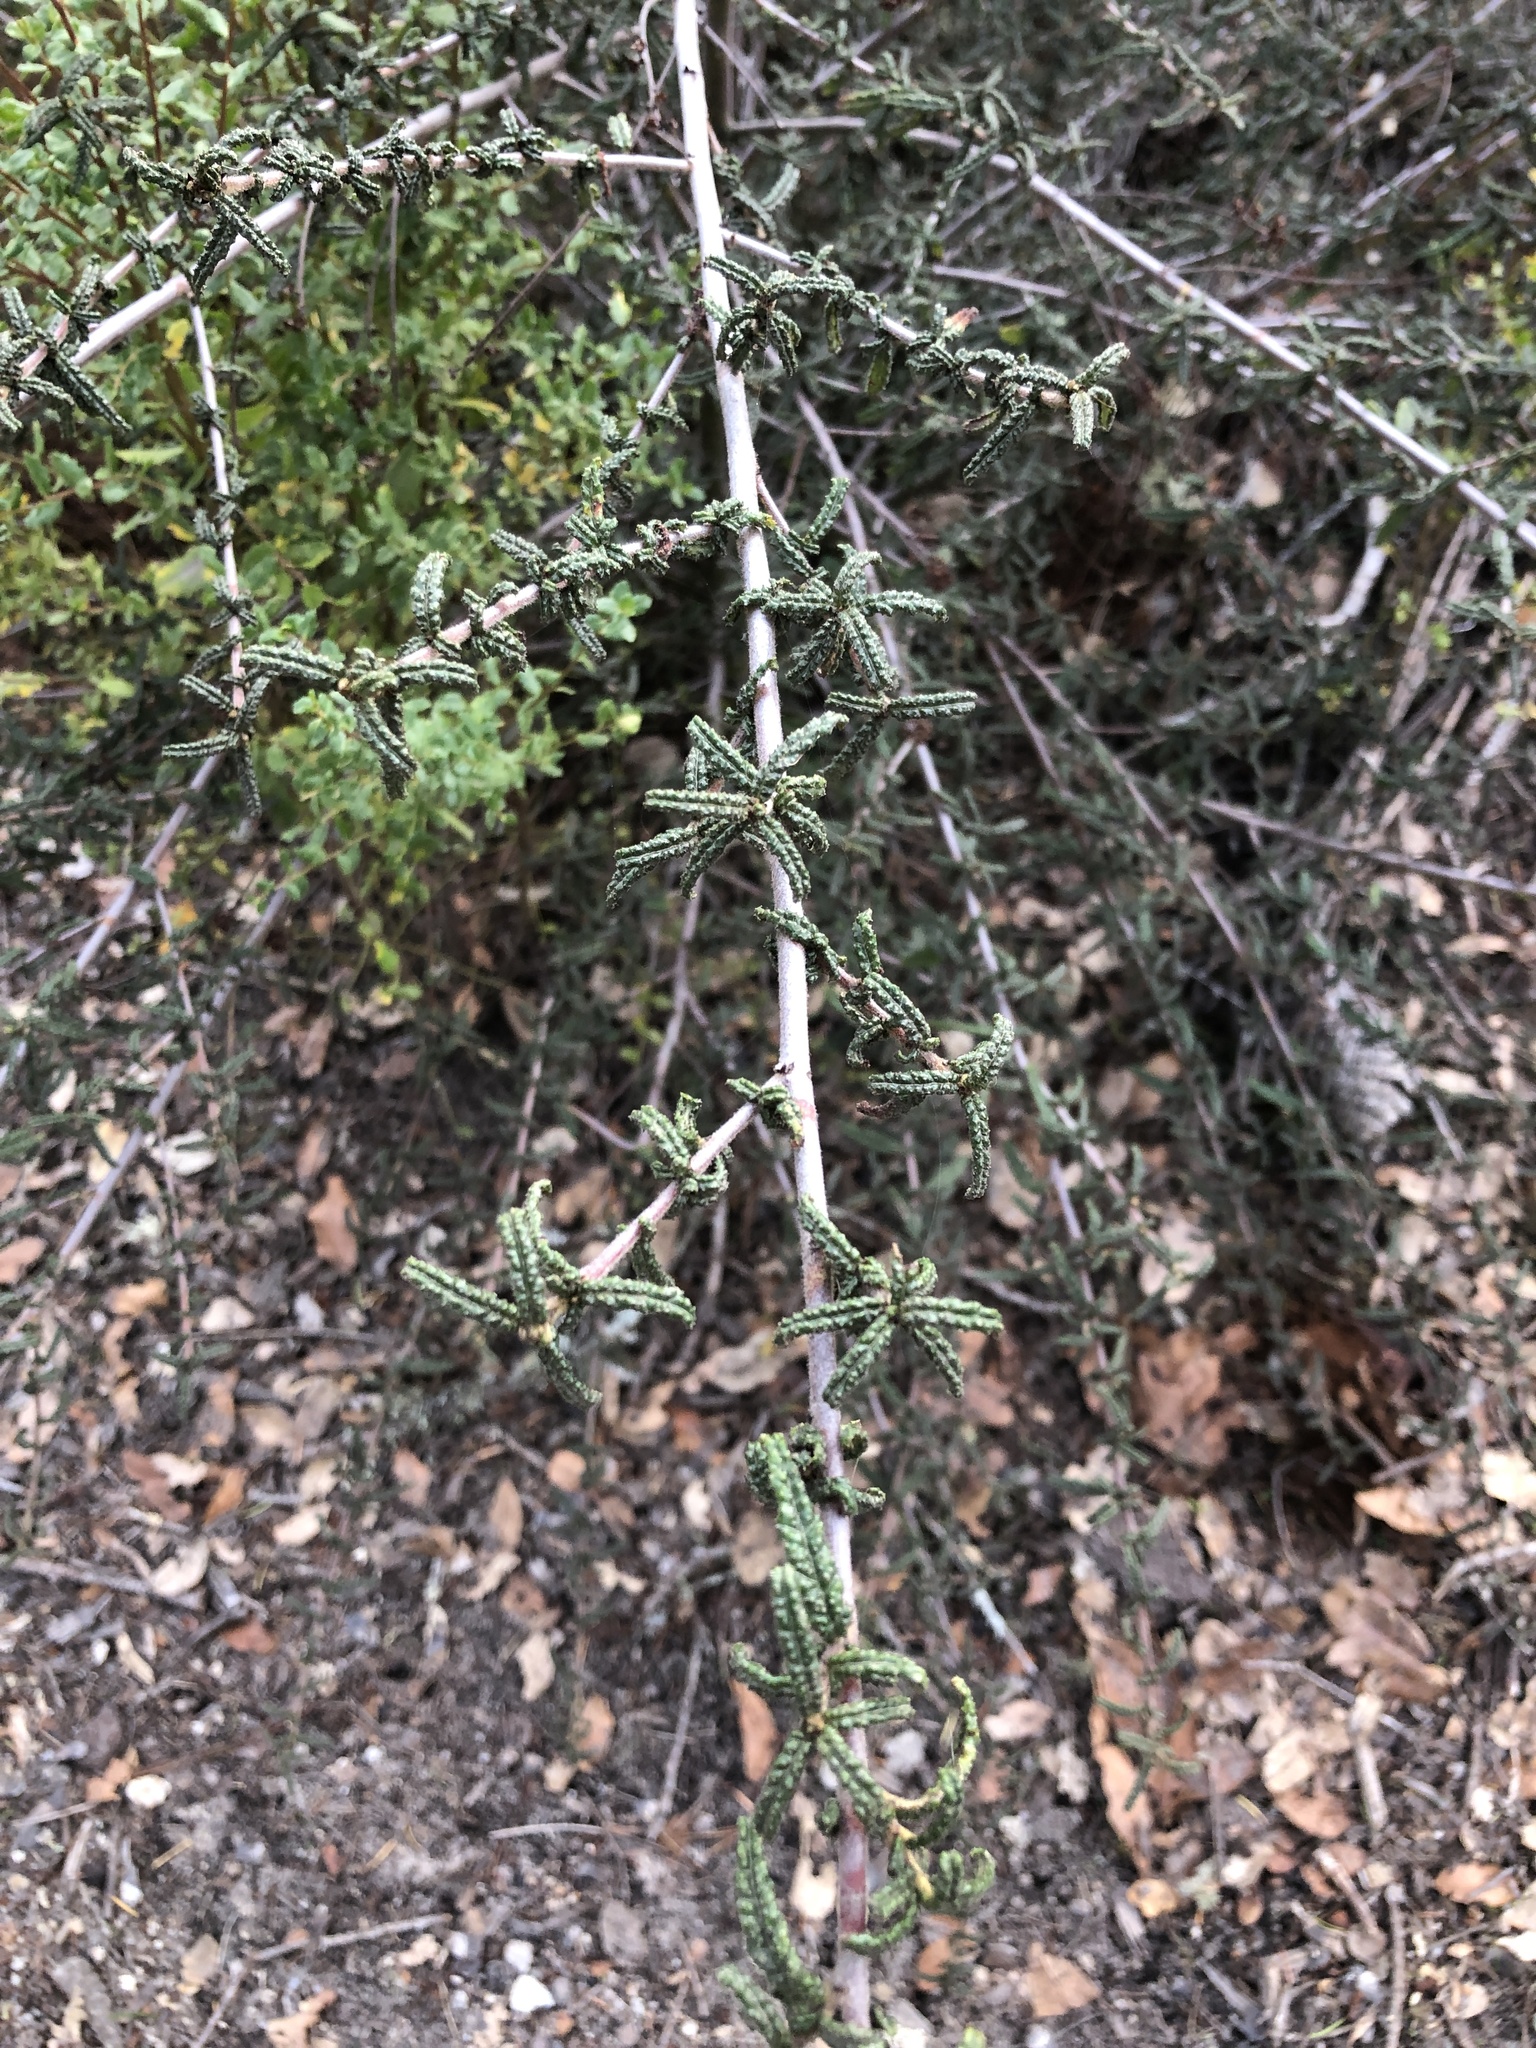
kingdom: Plantae
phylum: Tracheophyta
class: Magnoliopsida
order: Rosales
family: Rhamnaceae
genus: Ceanothus
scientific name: Ceanothus papillosus
